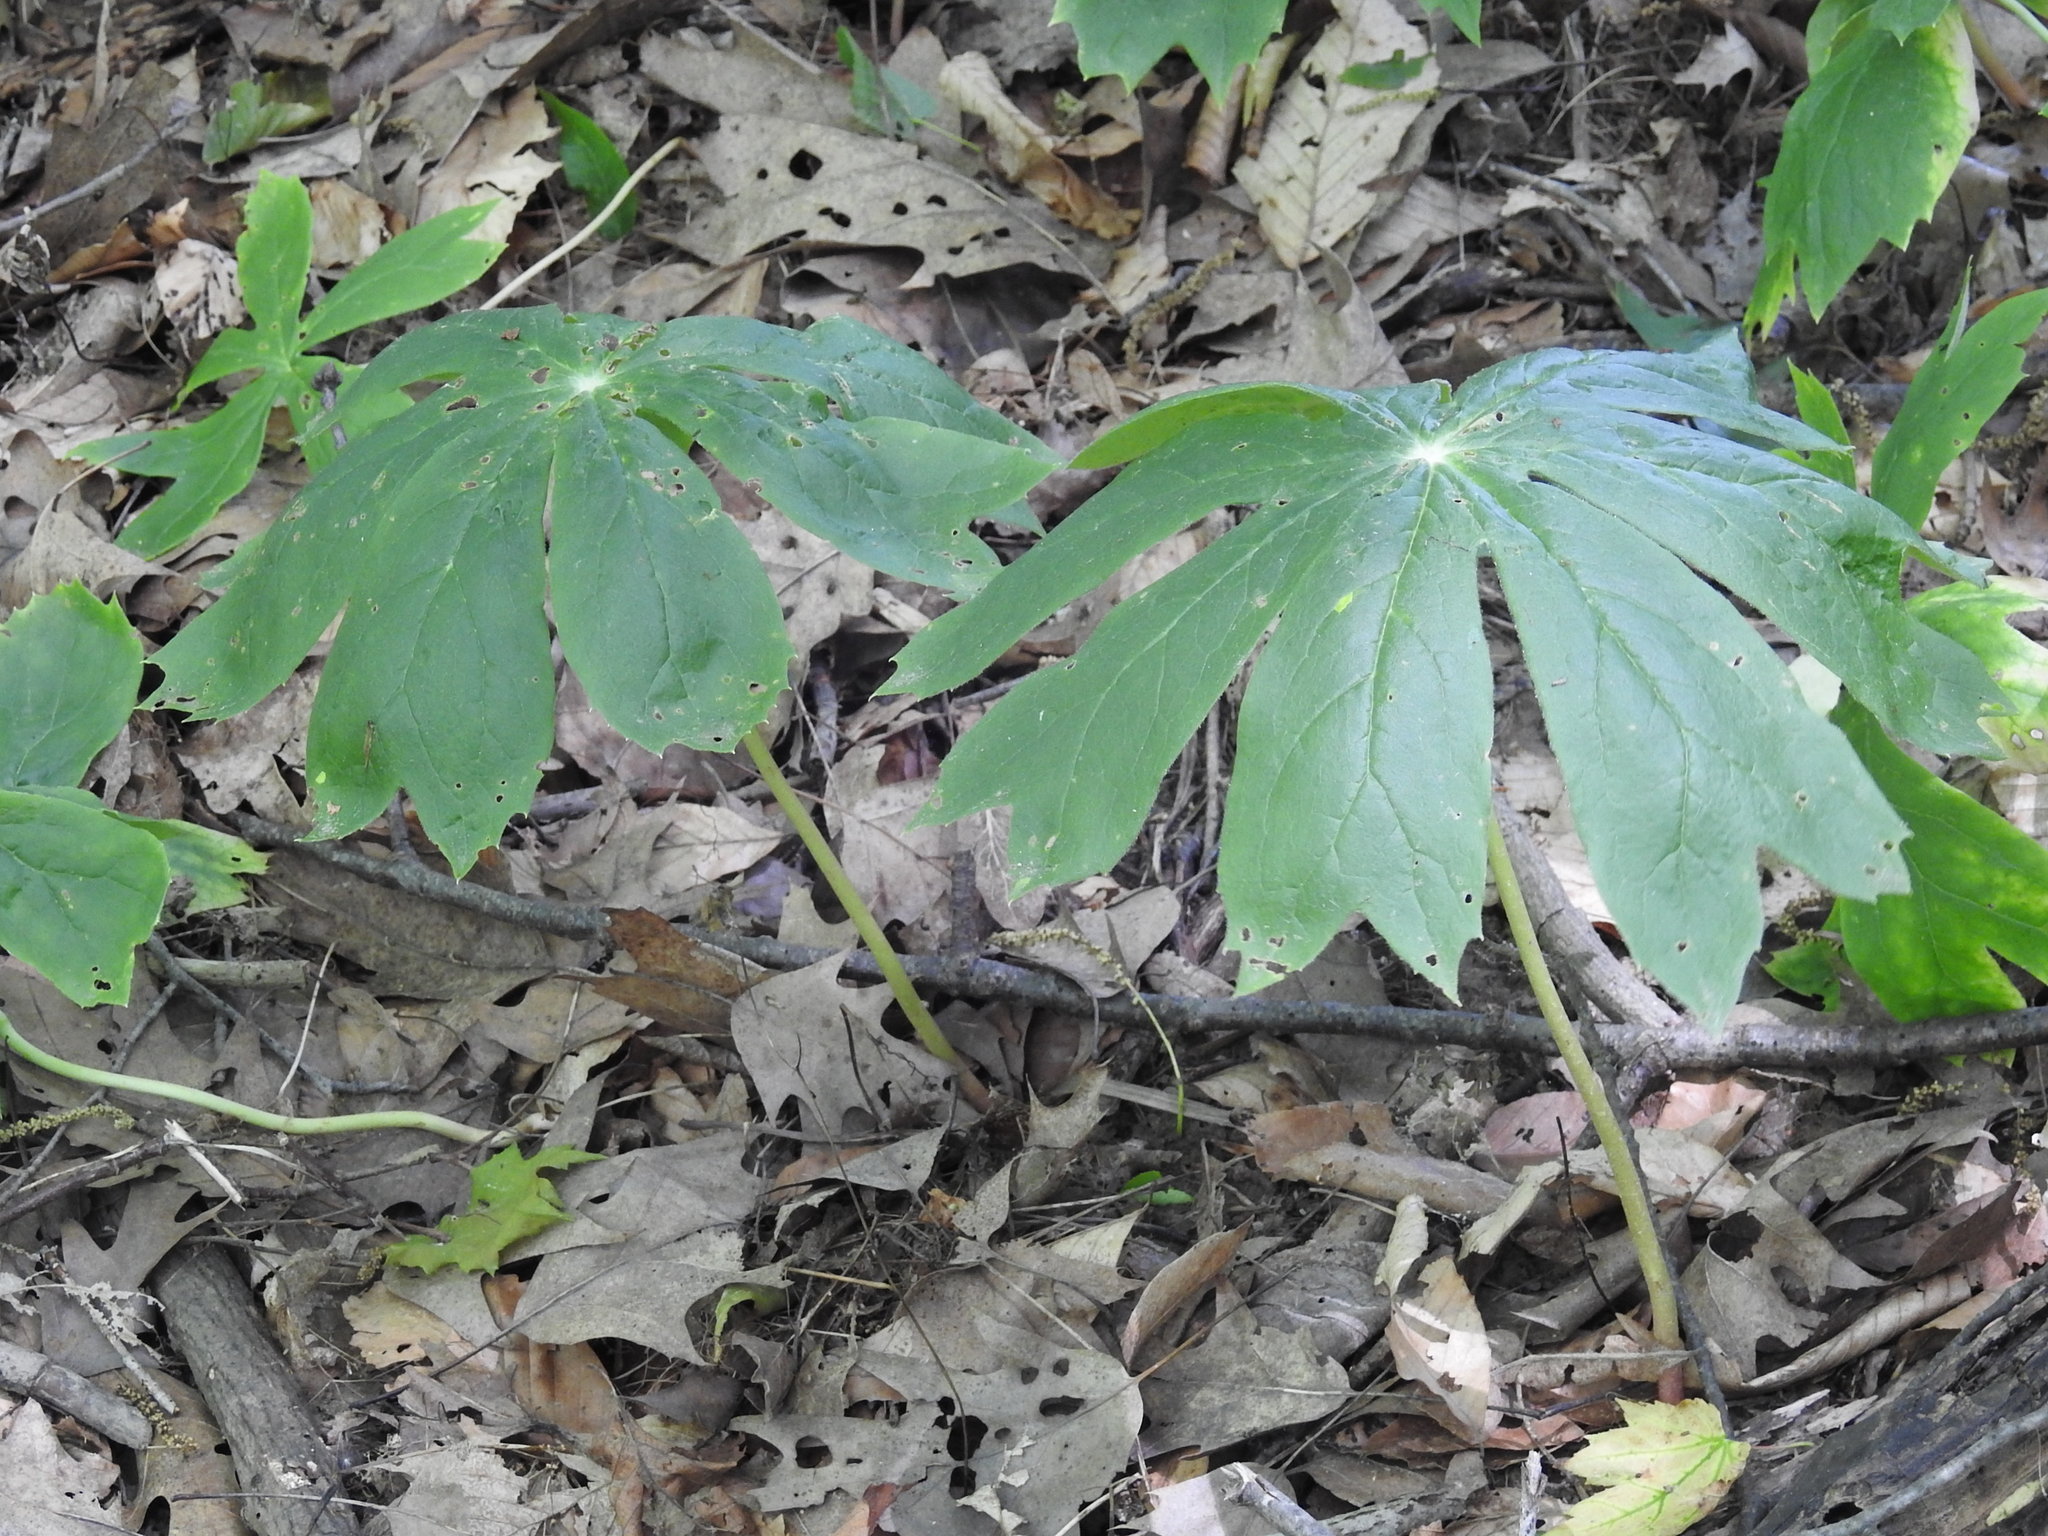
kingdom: Plantae
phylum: Tracheophyta
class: Magnoliopsida
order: Ranunculales
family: Berberidaceae
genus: Podophyllum
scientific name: Podophyllum peltatum
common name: Wild mandrake
